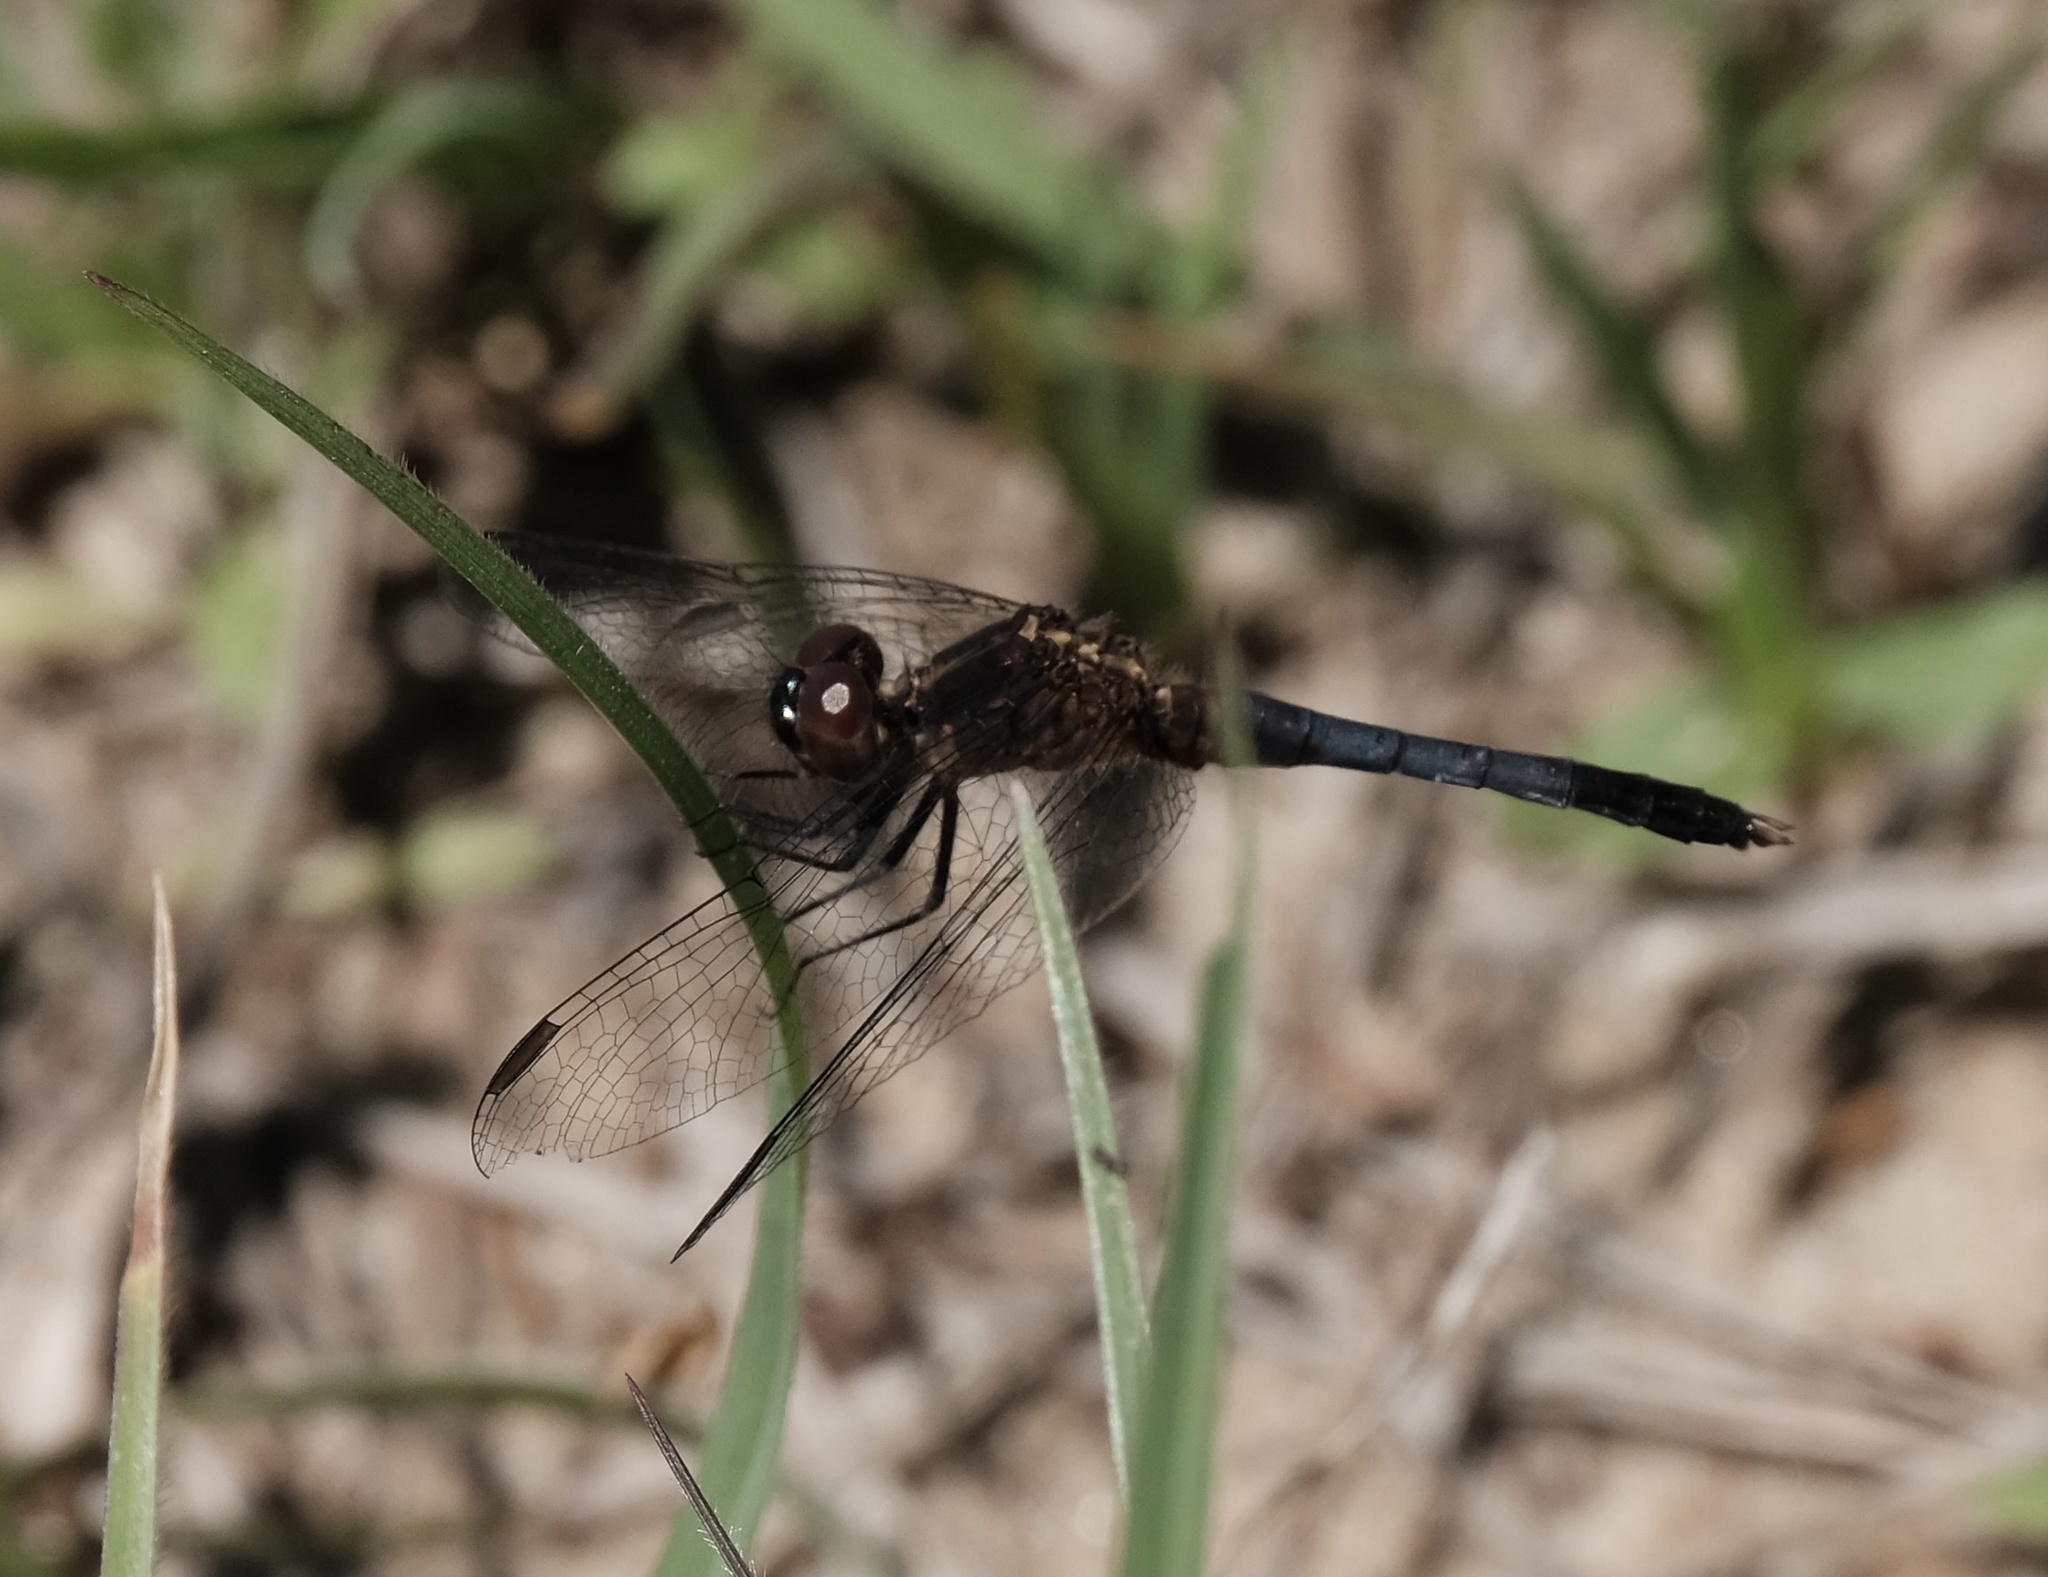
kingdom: Animalia
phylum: Arthropoda
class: Insecta
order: Odonata
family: Libellulidae
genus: Erythrodiplax
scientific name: Erythrodiplax minuscula
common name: Little blue dragonlet
